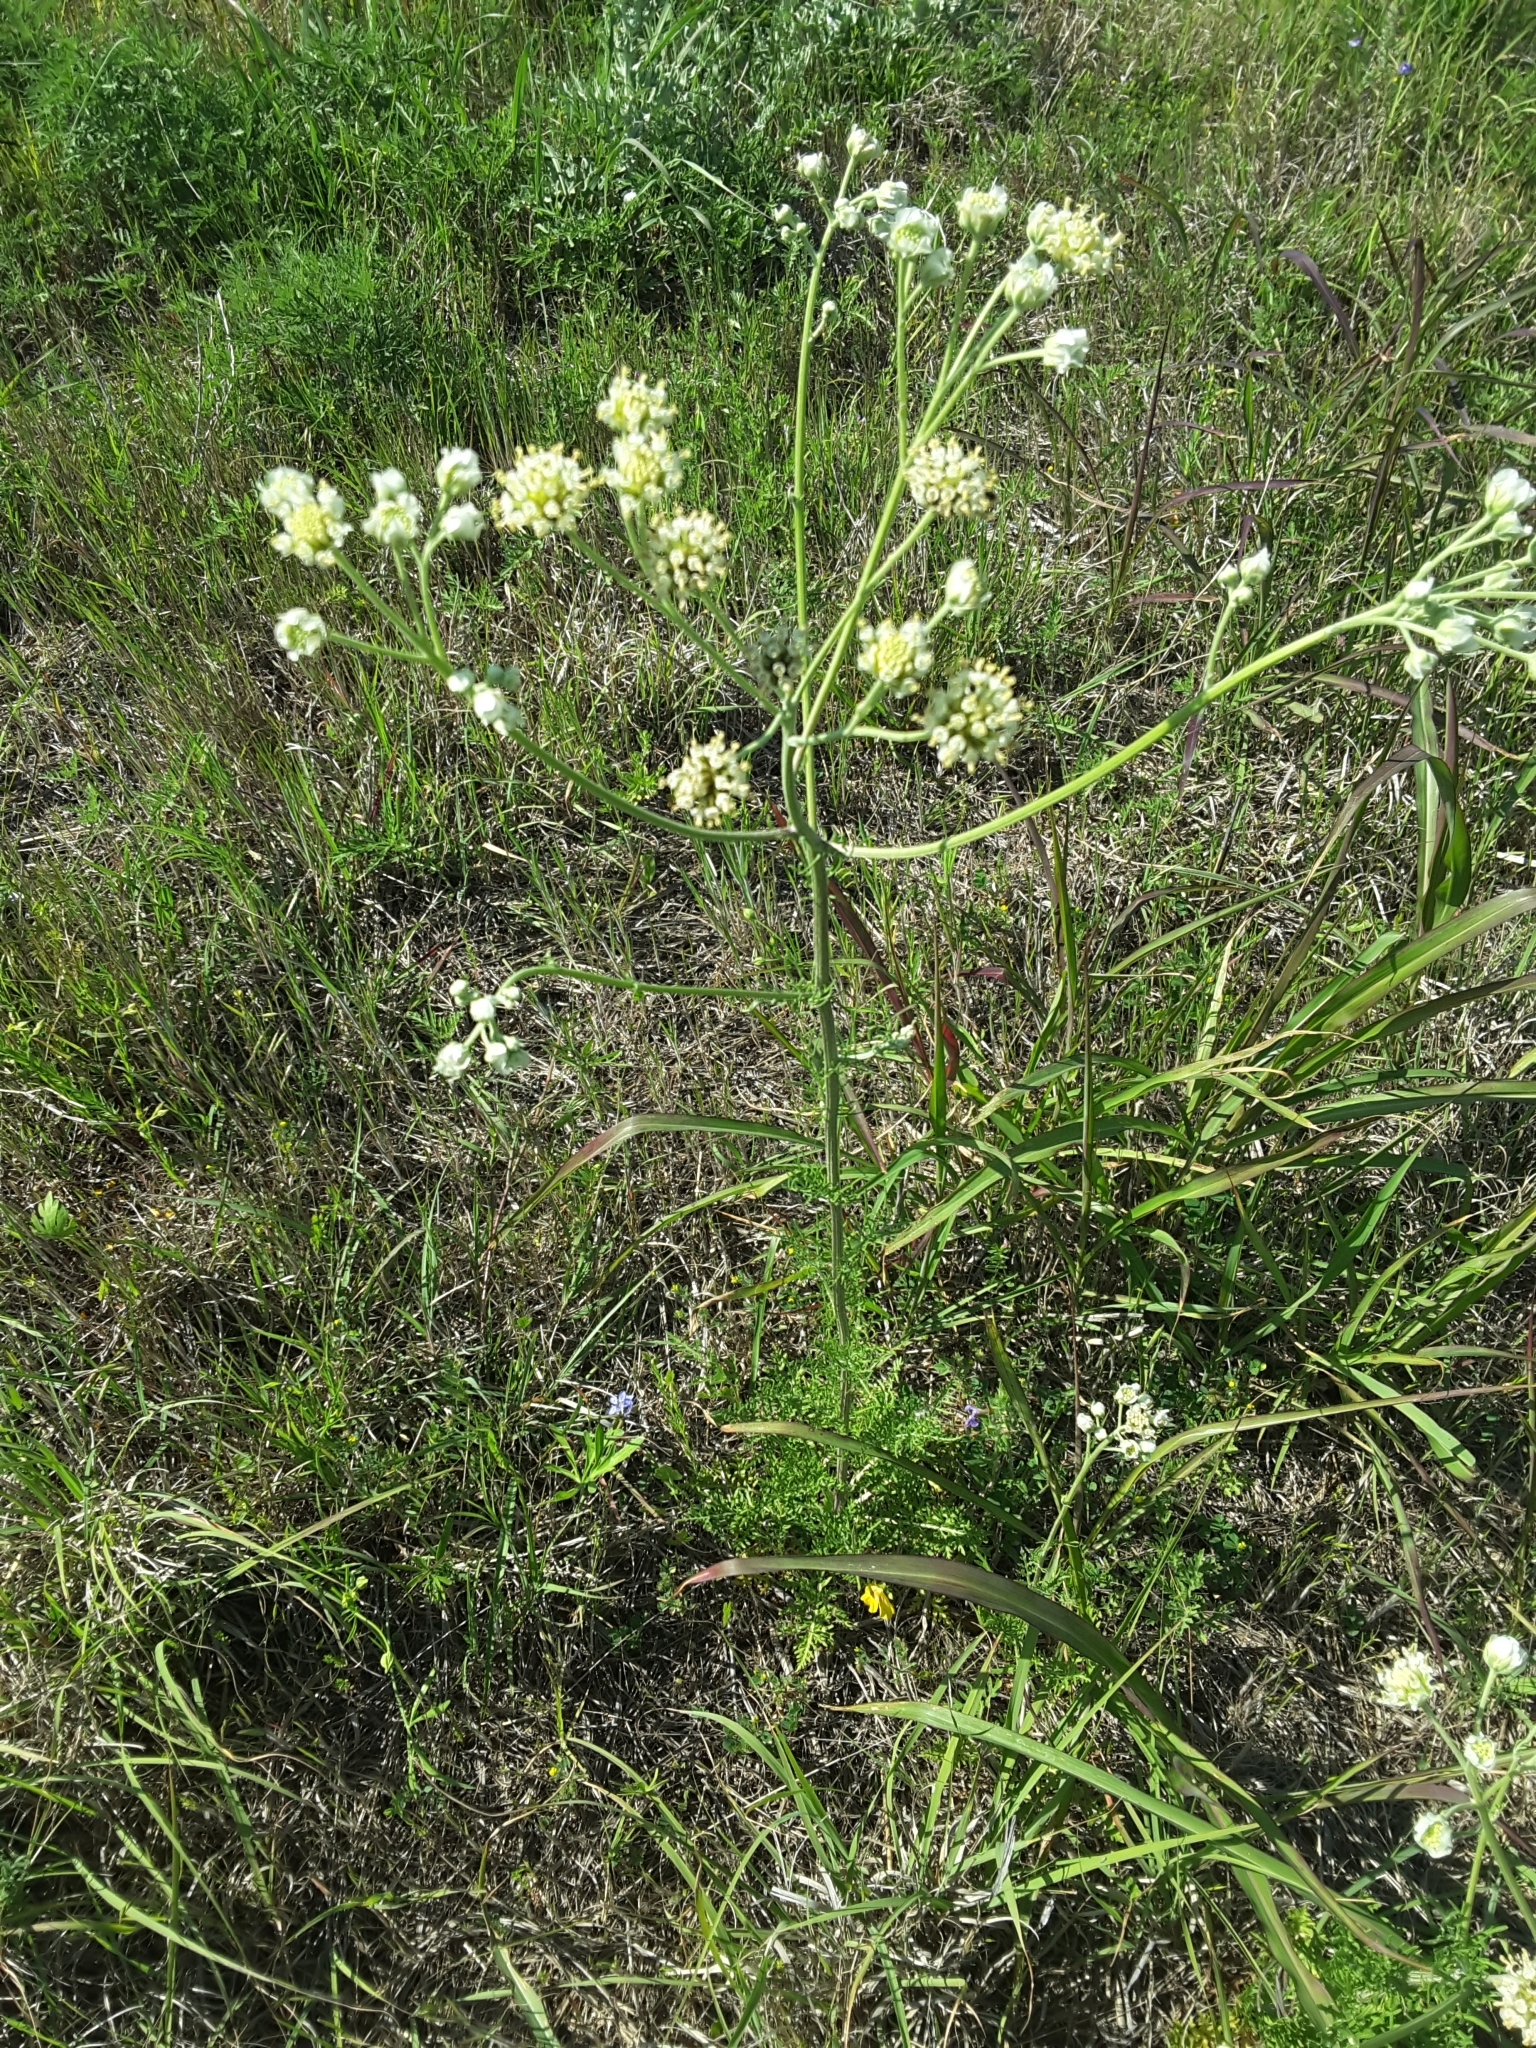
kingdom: Plantae
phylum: Tracheophyta
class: Magnoliopsida
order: Asterales
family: Asteraceae
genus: Hymenopappus
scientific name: Hymenopappus scabiosaeus
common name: Carolina woollywhite
